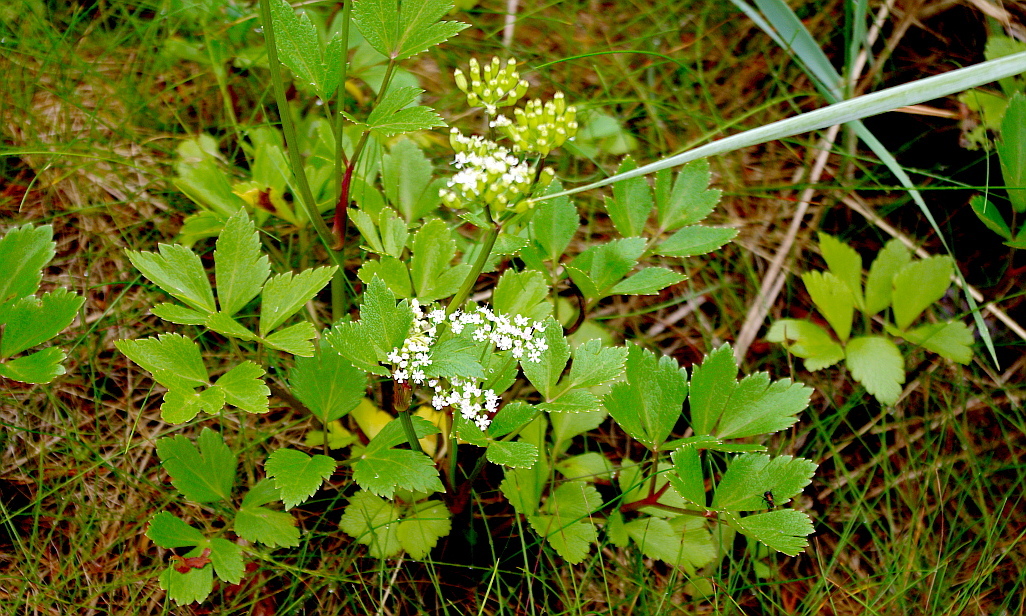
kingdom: Plantae
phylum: Tracheophyta
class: Magnoliopsida
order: Apiales
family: Apiaceae
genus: Ligusticum
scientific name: Ligusticum scothicum
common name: Beach lovage
